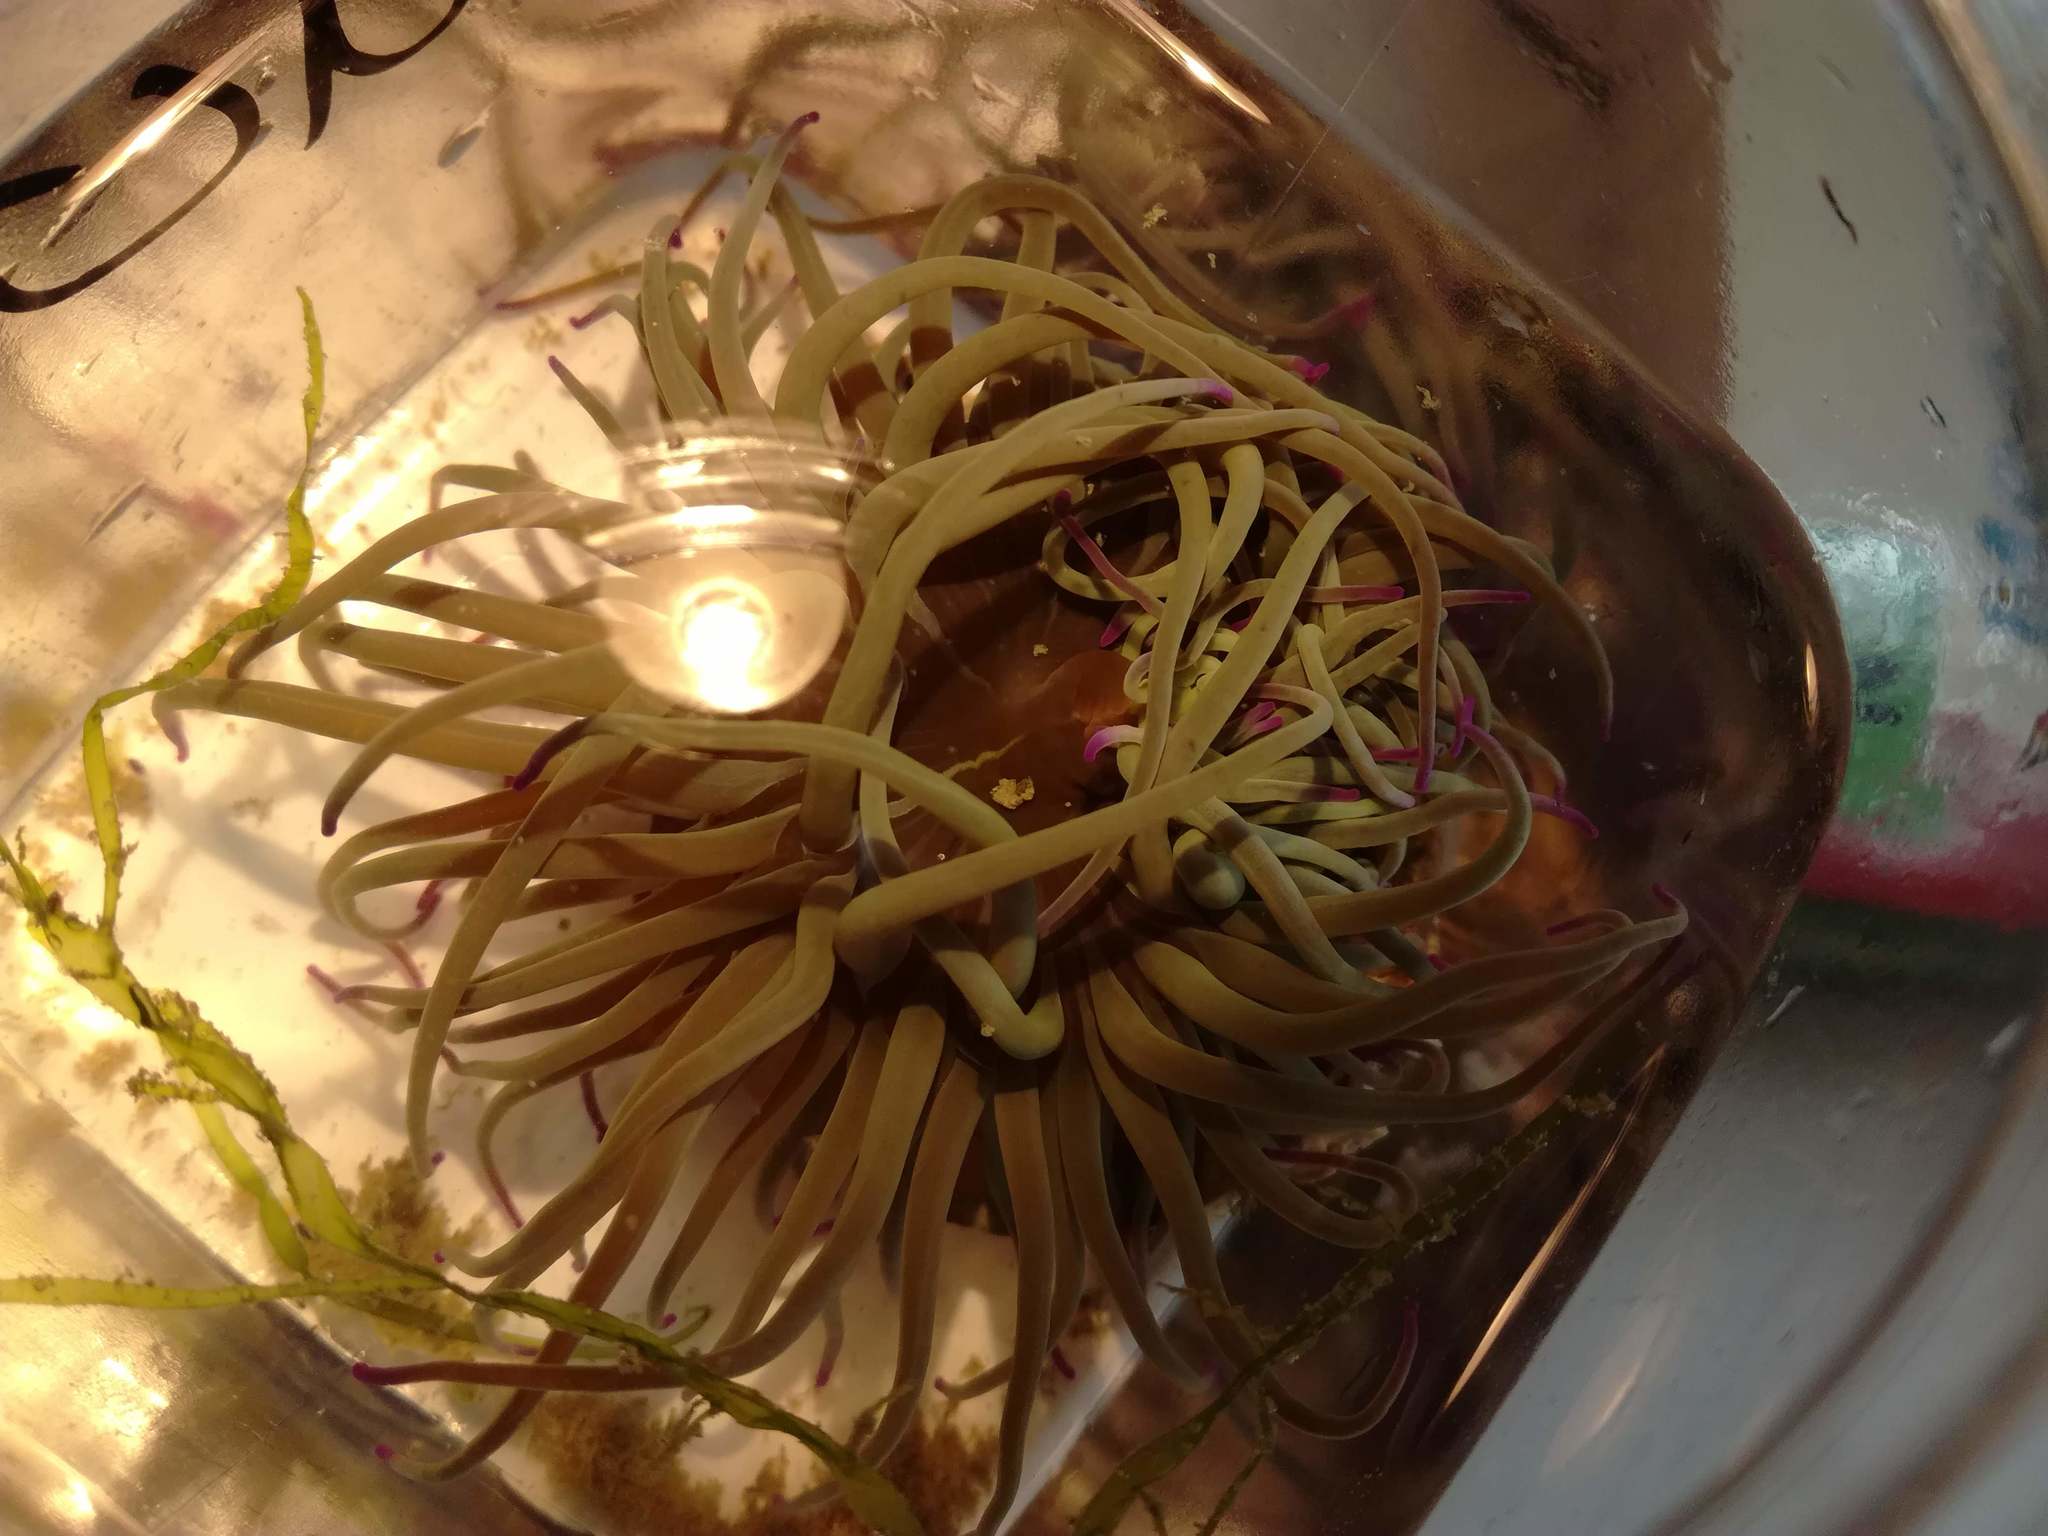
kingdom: Animalia
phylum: Cnidaria
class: Anthozoa
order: Actiniaria
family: Actiniidae
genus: Anemonia
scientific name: Anemonia viridis
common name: Snakelocks anemone
